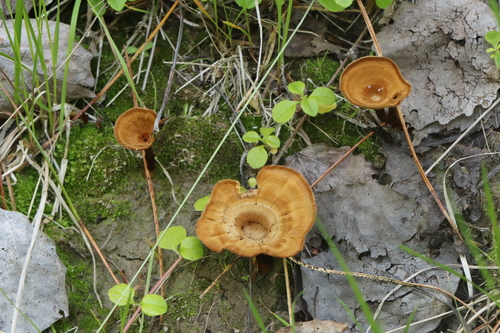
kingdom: Fungi
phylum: Basidiomycota
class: Agaricomycetes
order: Hymenochaetales
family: Hymenochaetaceae
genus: Coltricia
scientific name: Coltricia perennis
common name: Tiger's eye
